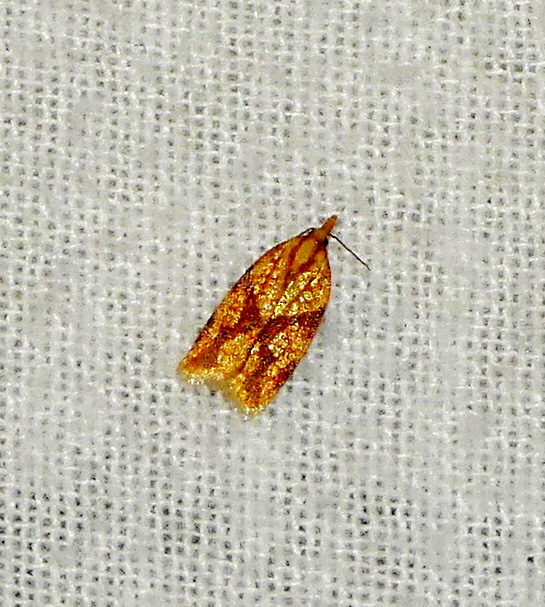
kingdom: Animalia
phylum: Arthropoda
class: Insecta
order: Lepidoptera
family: Tortricidae
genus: Sparganothis
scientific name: Sparganothis sulfureana
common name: Sparganothis fruitworm moth
